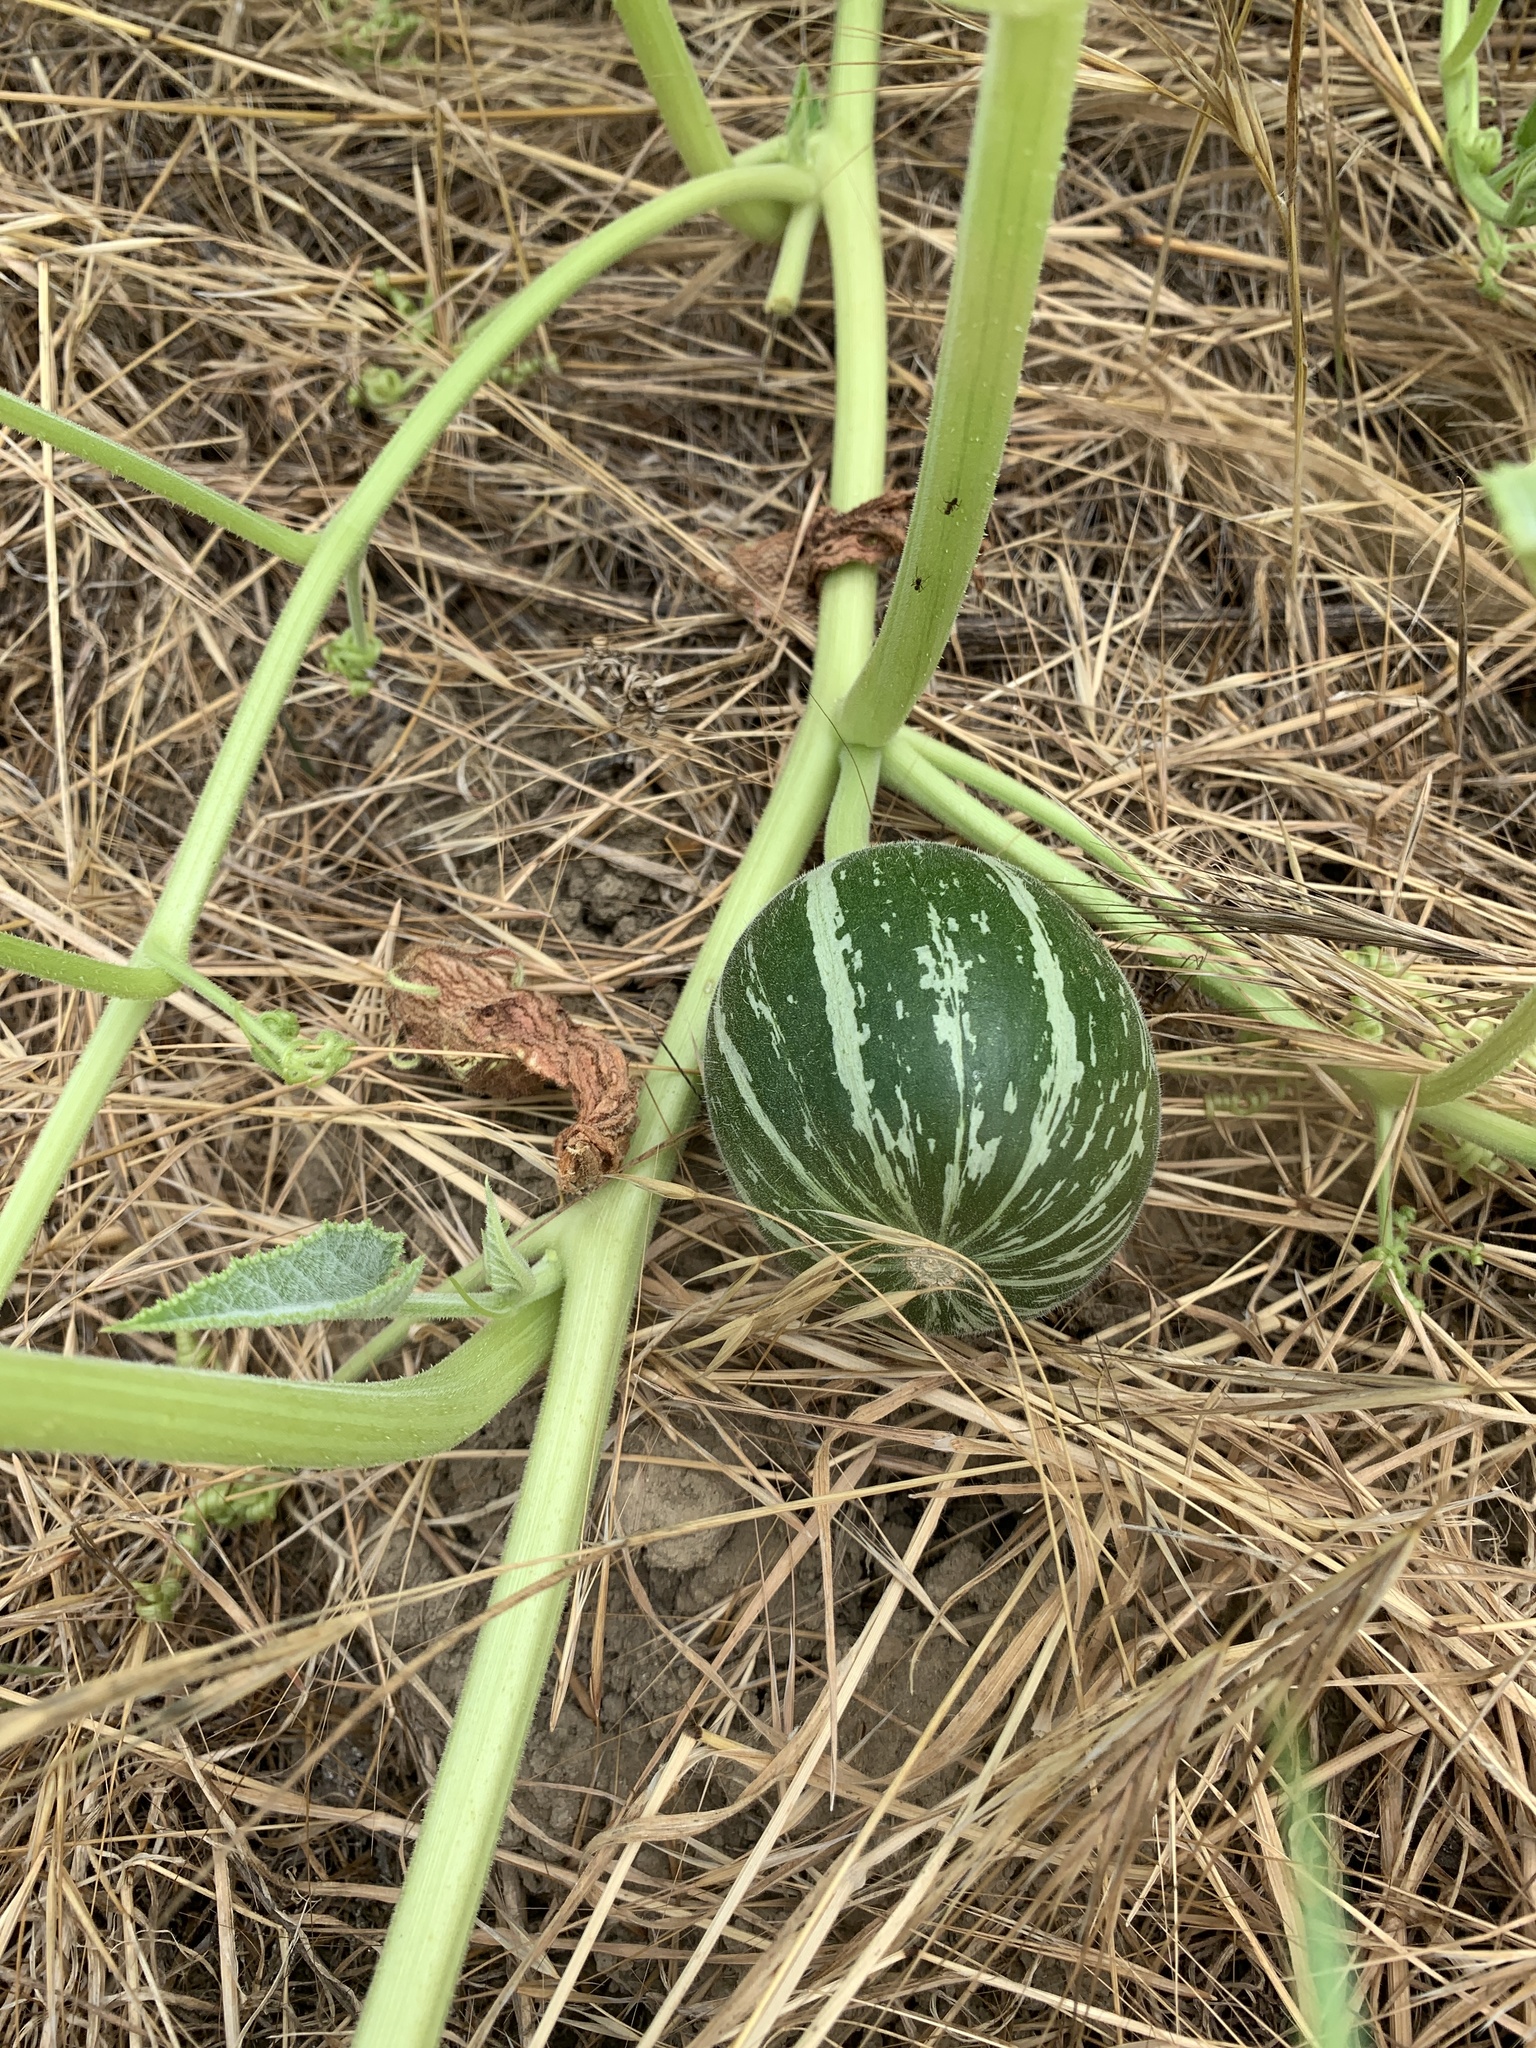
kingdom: Plantae
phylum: Tracheophyta
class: Magnoliopsida
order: Cucurbitales
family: Cucurbitaceae
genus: Cucurbita
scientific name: Cucurbita foetidissima
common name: Buffalo gourd
